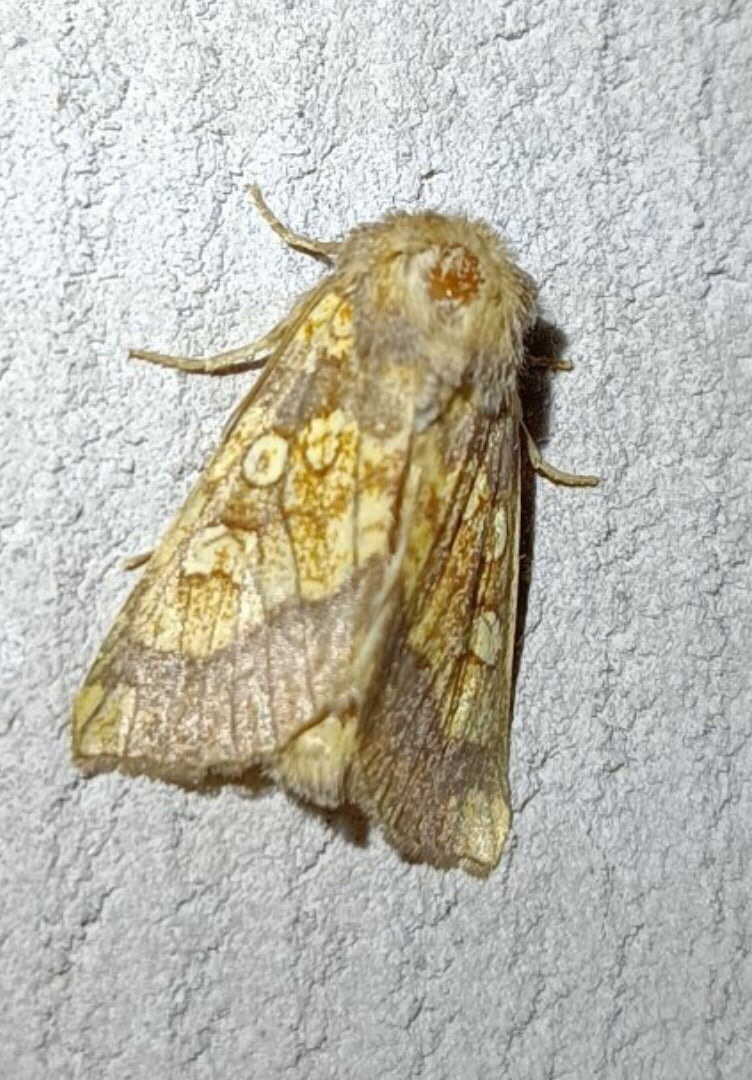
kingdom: Animalia
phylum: Arthropoda
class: Insecta
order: Lepidoptera
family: Noctuidae
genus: Gortyna
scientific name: Gortyna flavago
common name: Frosted orange
